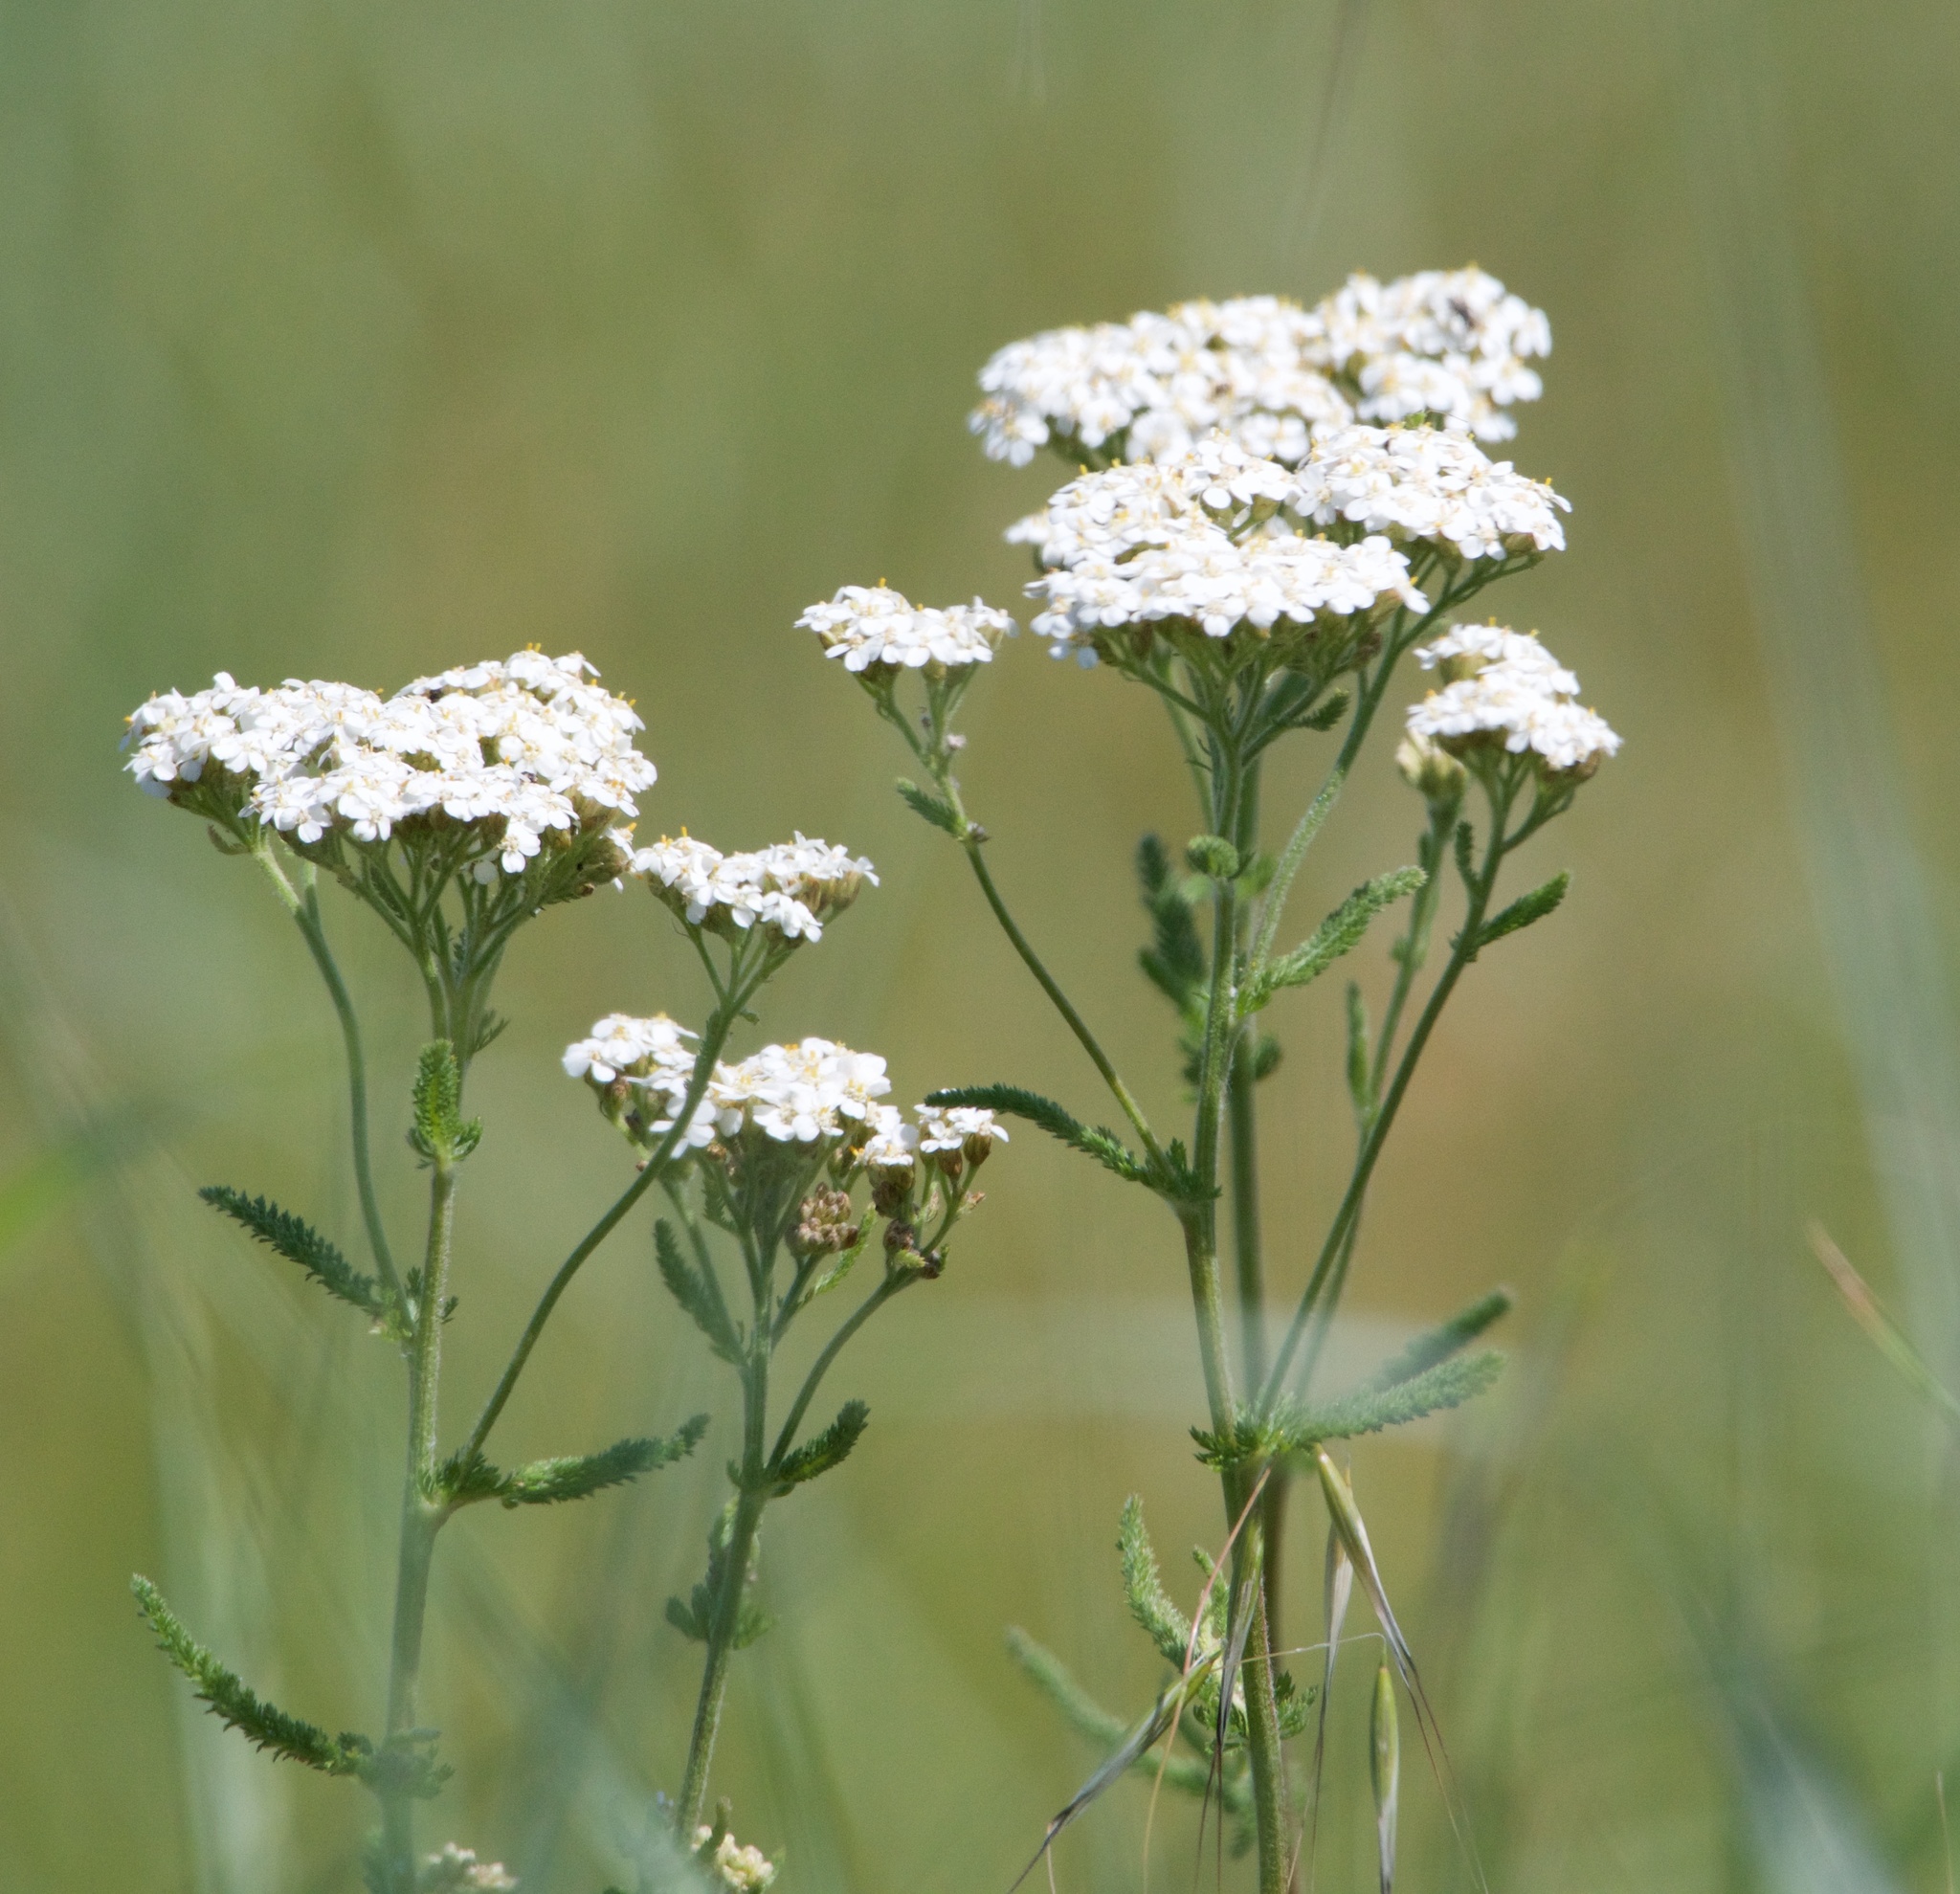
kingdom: Plantae
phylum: Tracheophyta
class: Magnoliopsida
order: Asterales
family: Asteraceae
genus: Achillea
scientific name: Achillea millefolium
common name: Yarrow
